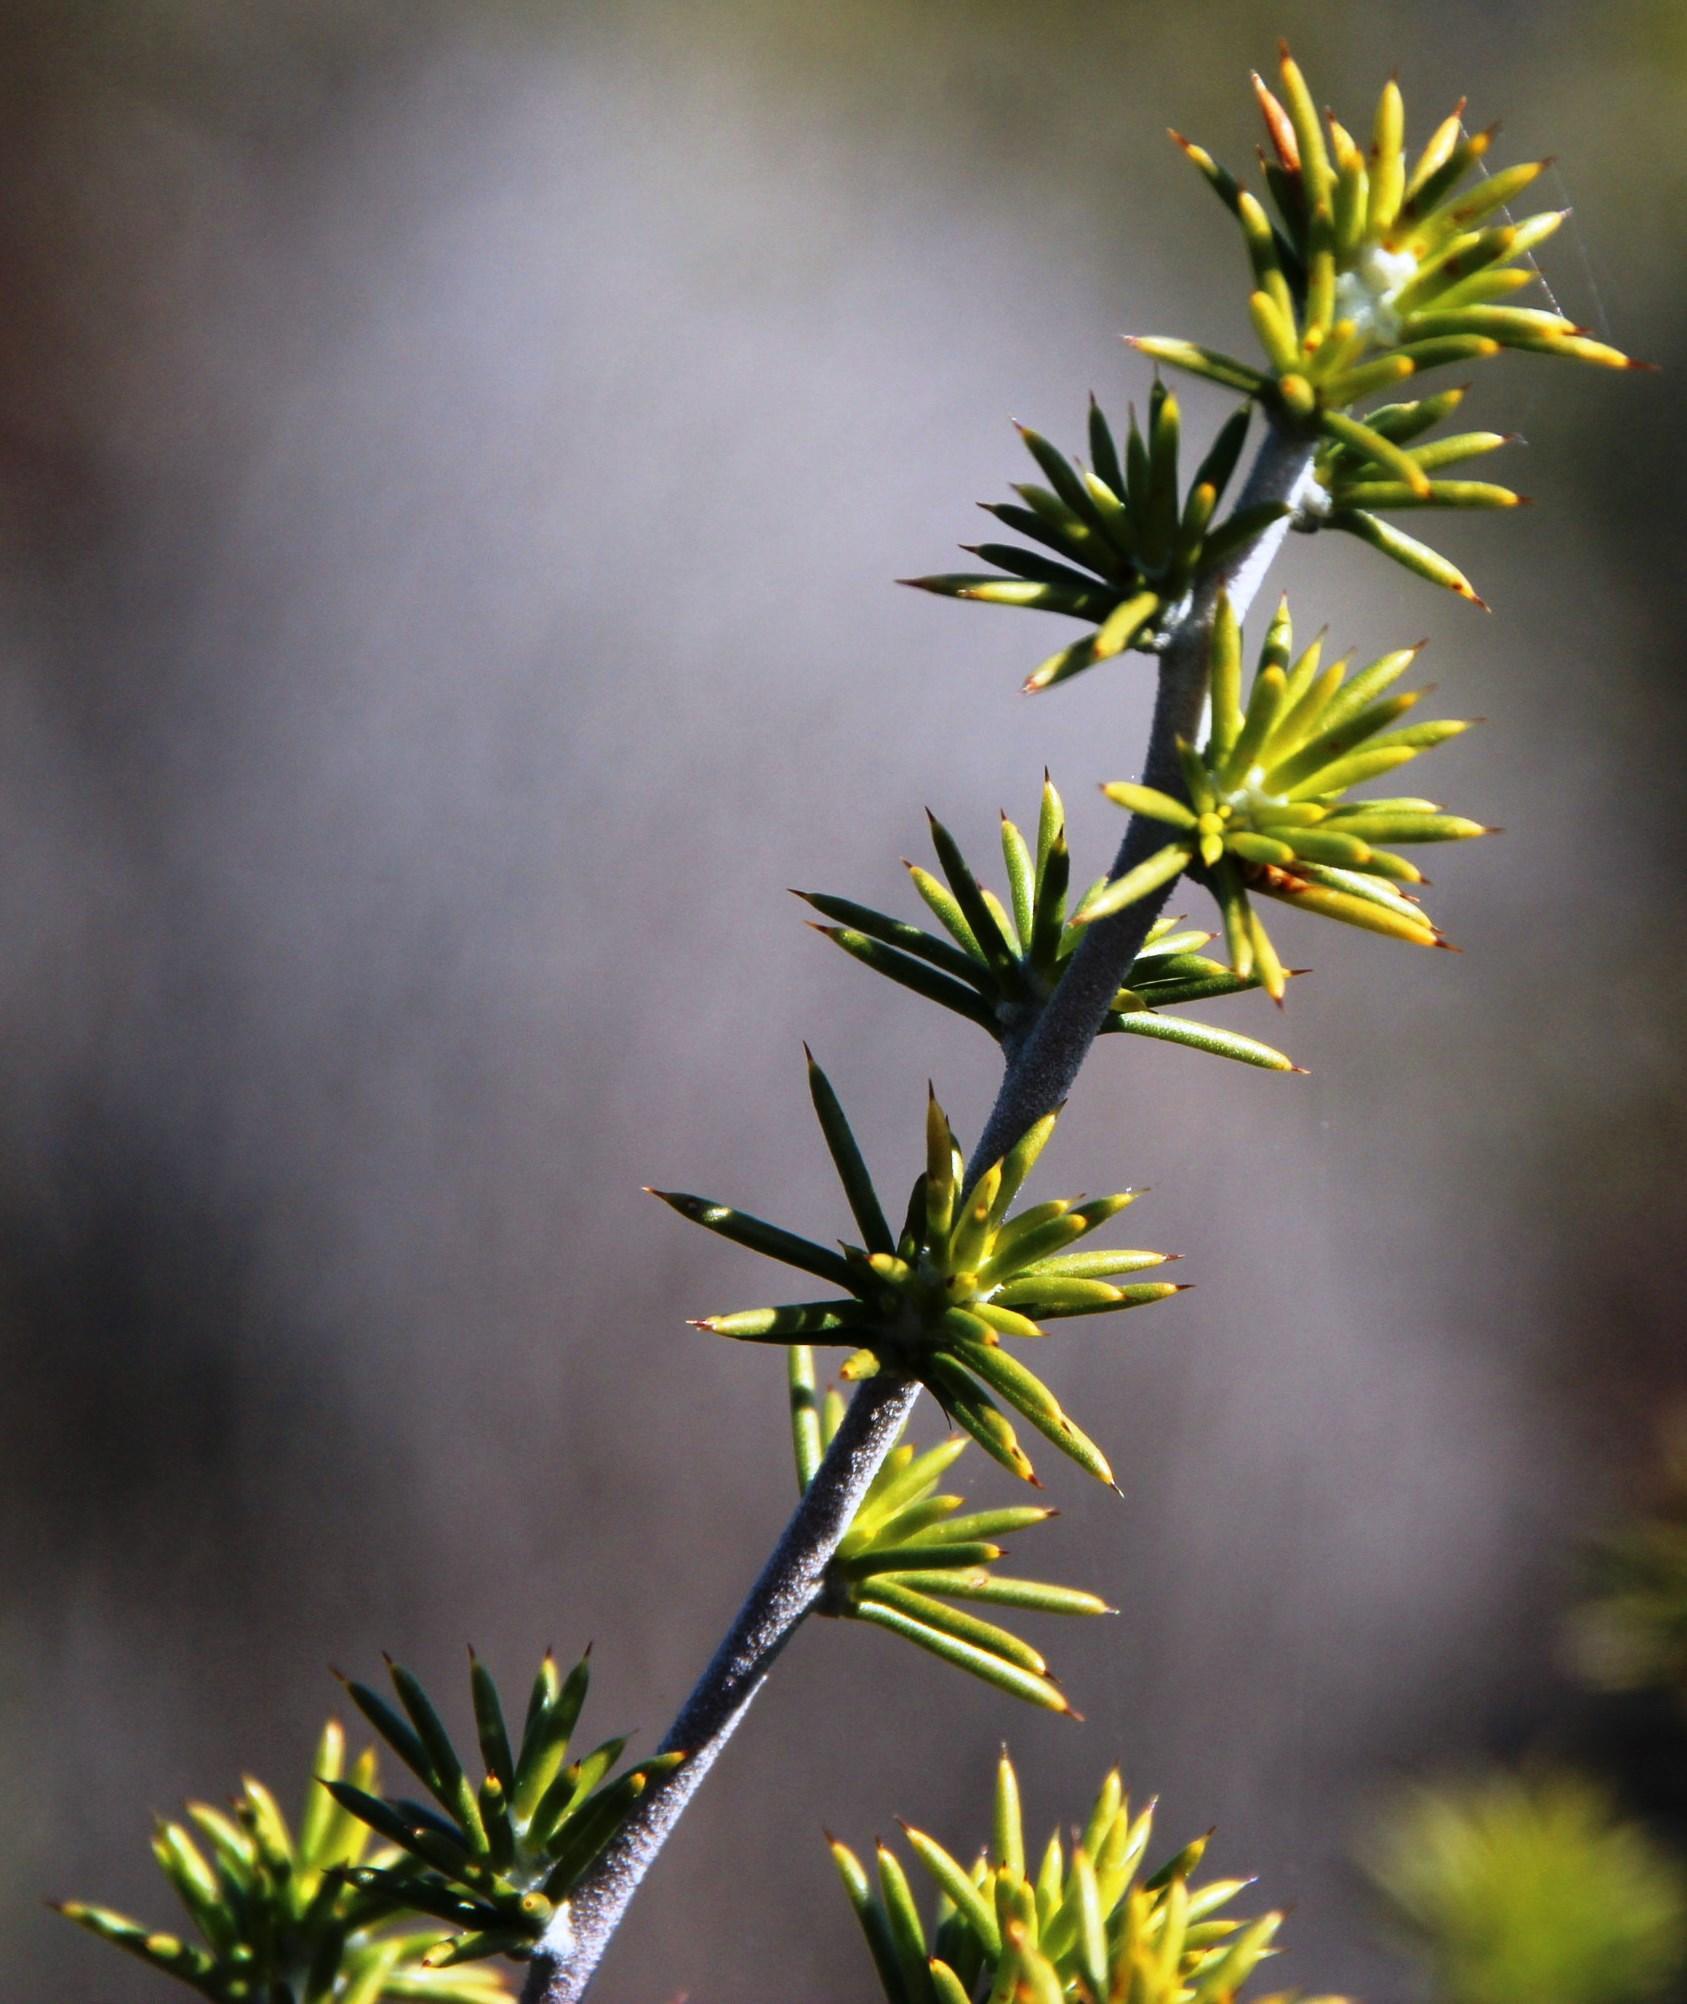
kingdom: Plantae
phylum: Tracheophyta
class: Magnoliopsida
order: Fabales
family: Fabaceae
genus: Aspalathus
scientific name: Aspalathus hirta
